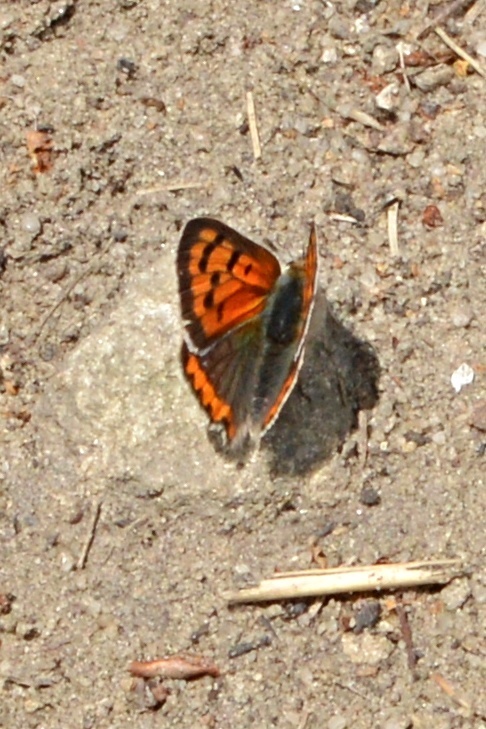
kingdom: Animalia
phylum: Arthropoda
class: Insecta
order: Lepidoptera
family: Lycaenidae
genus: Lycaena
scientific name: Lycaena phlaeas
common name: Small copper
